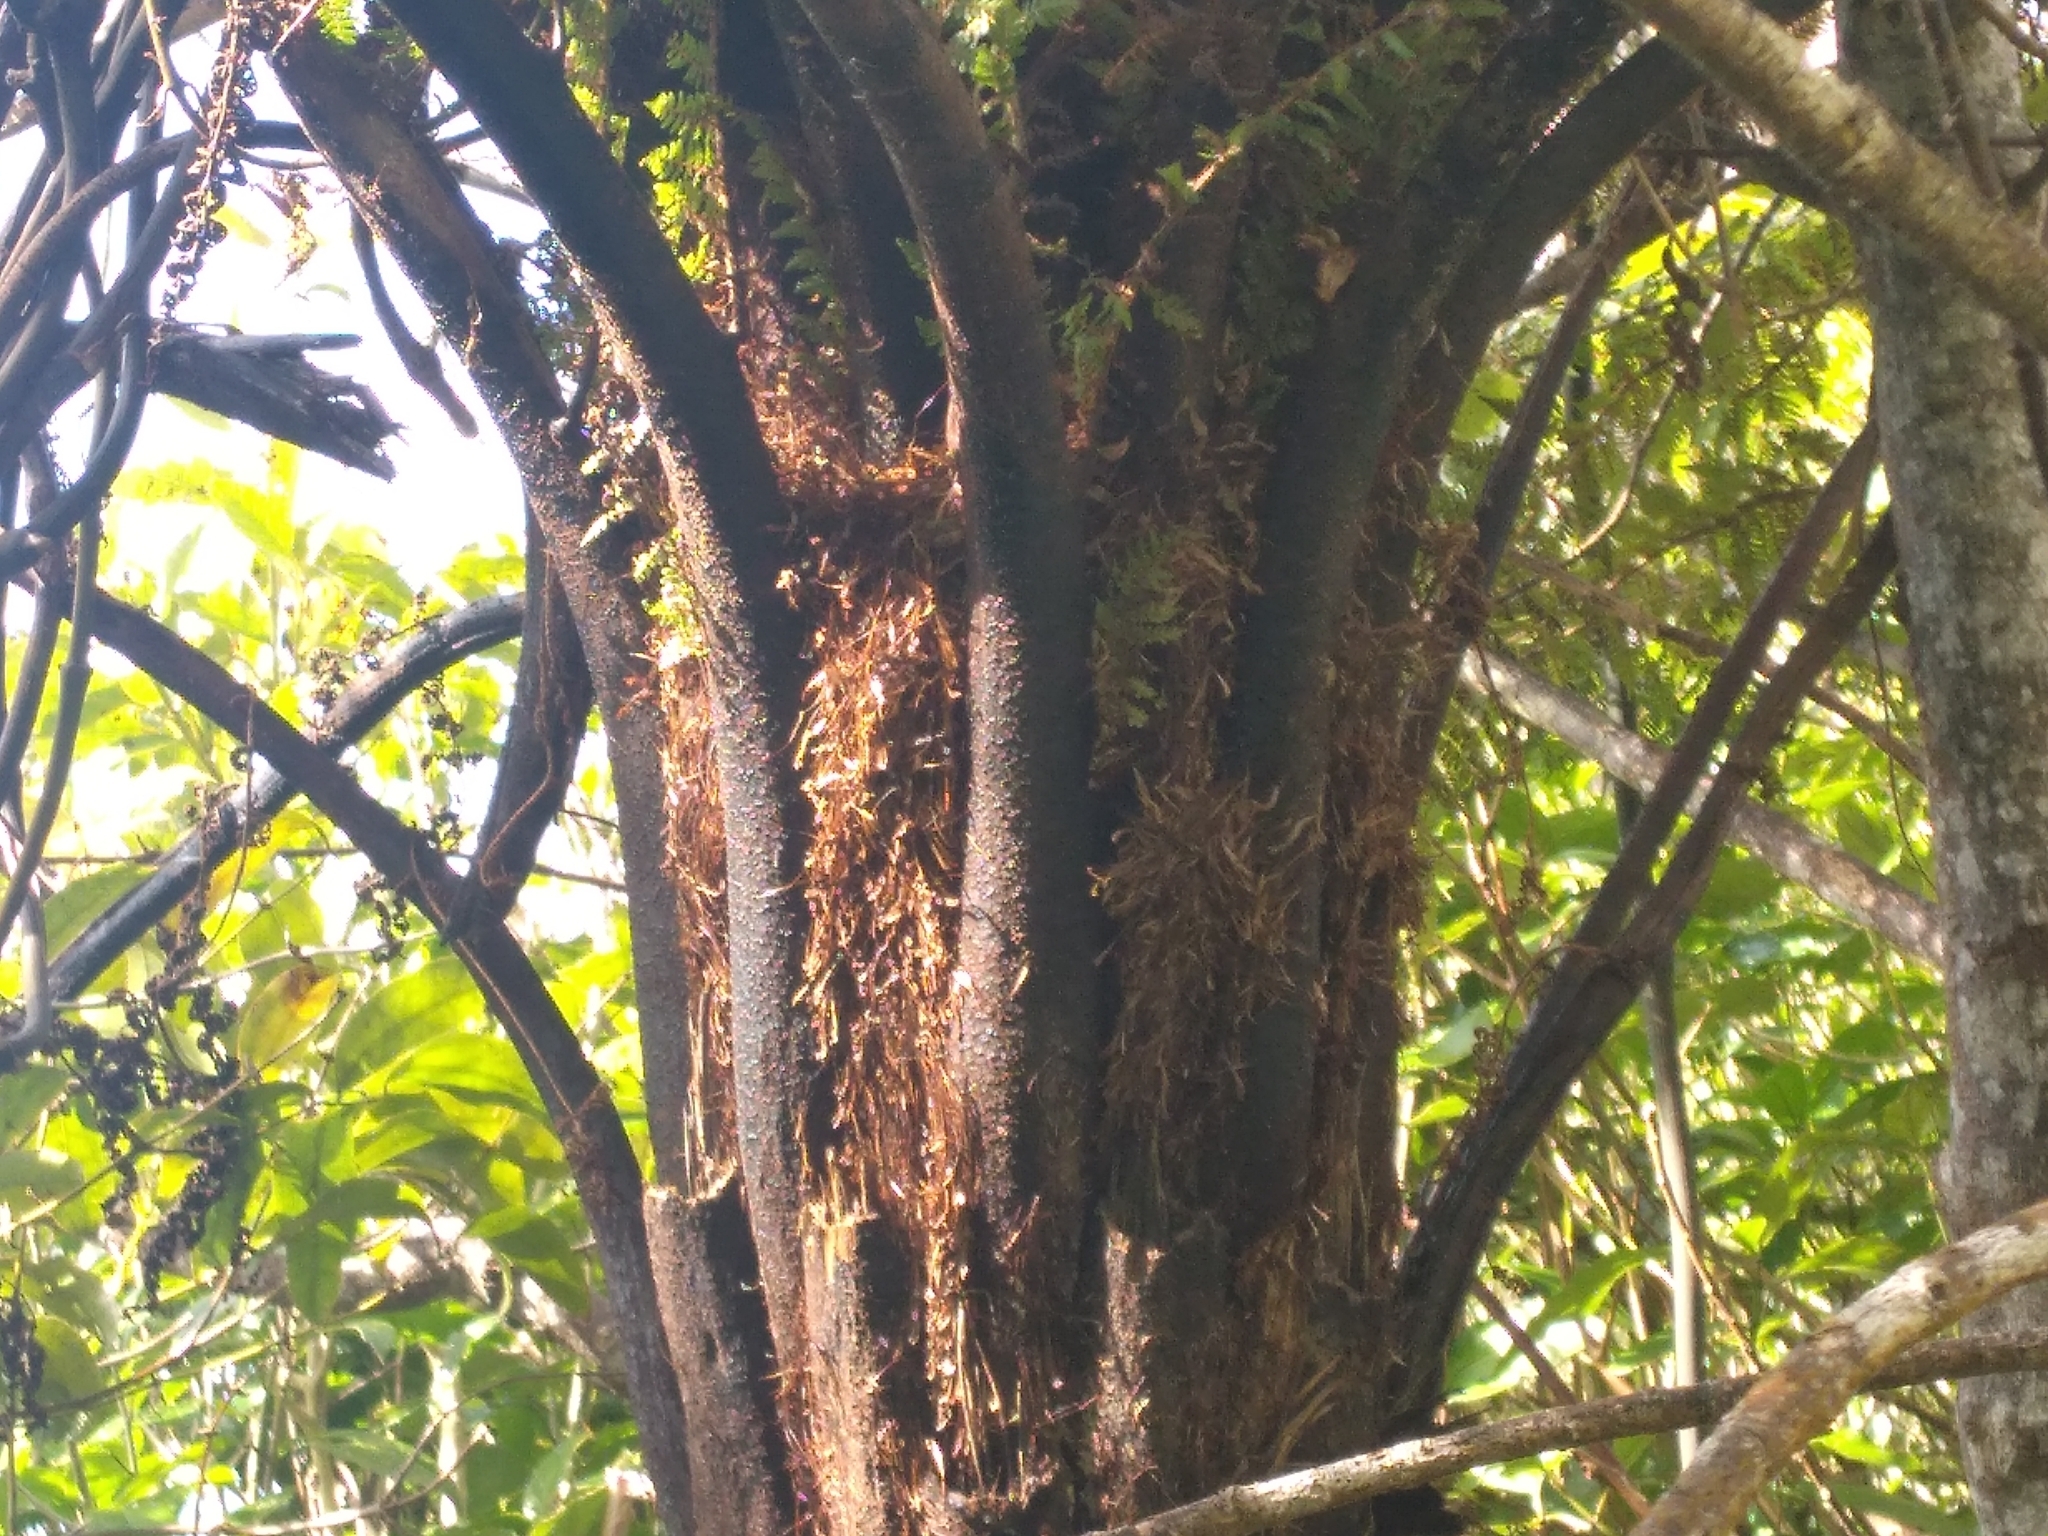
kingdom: Plantae
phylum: Tracheophyta
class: Polypodiopsida
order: Cyatheales
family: Cyatheaceae
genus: Cyathea
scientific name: Cyathea cunninghamii
